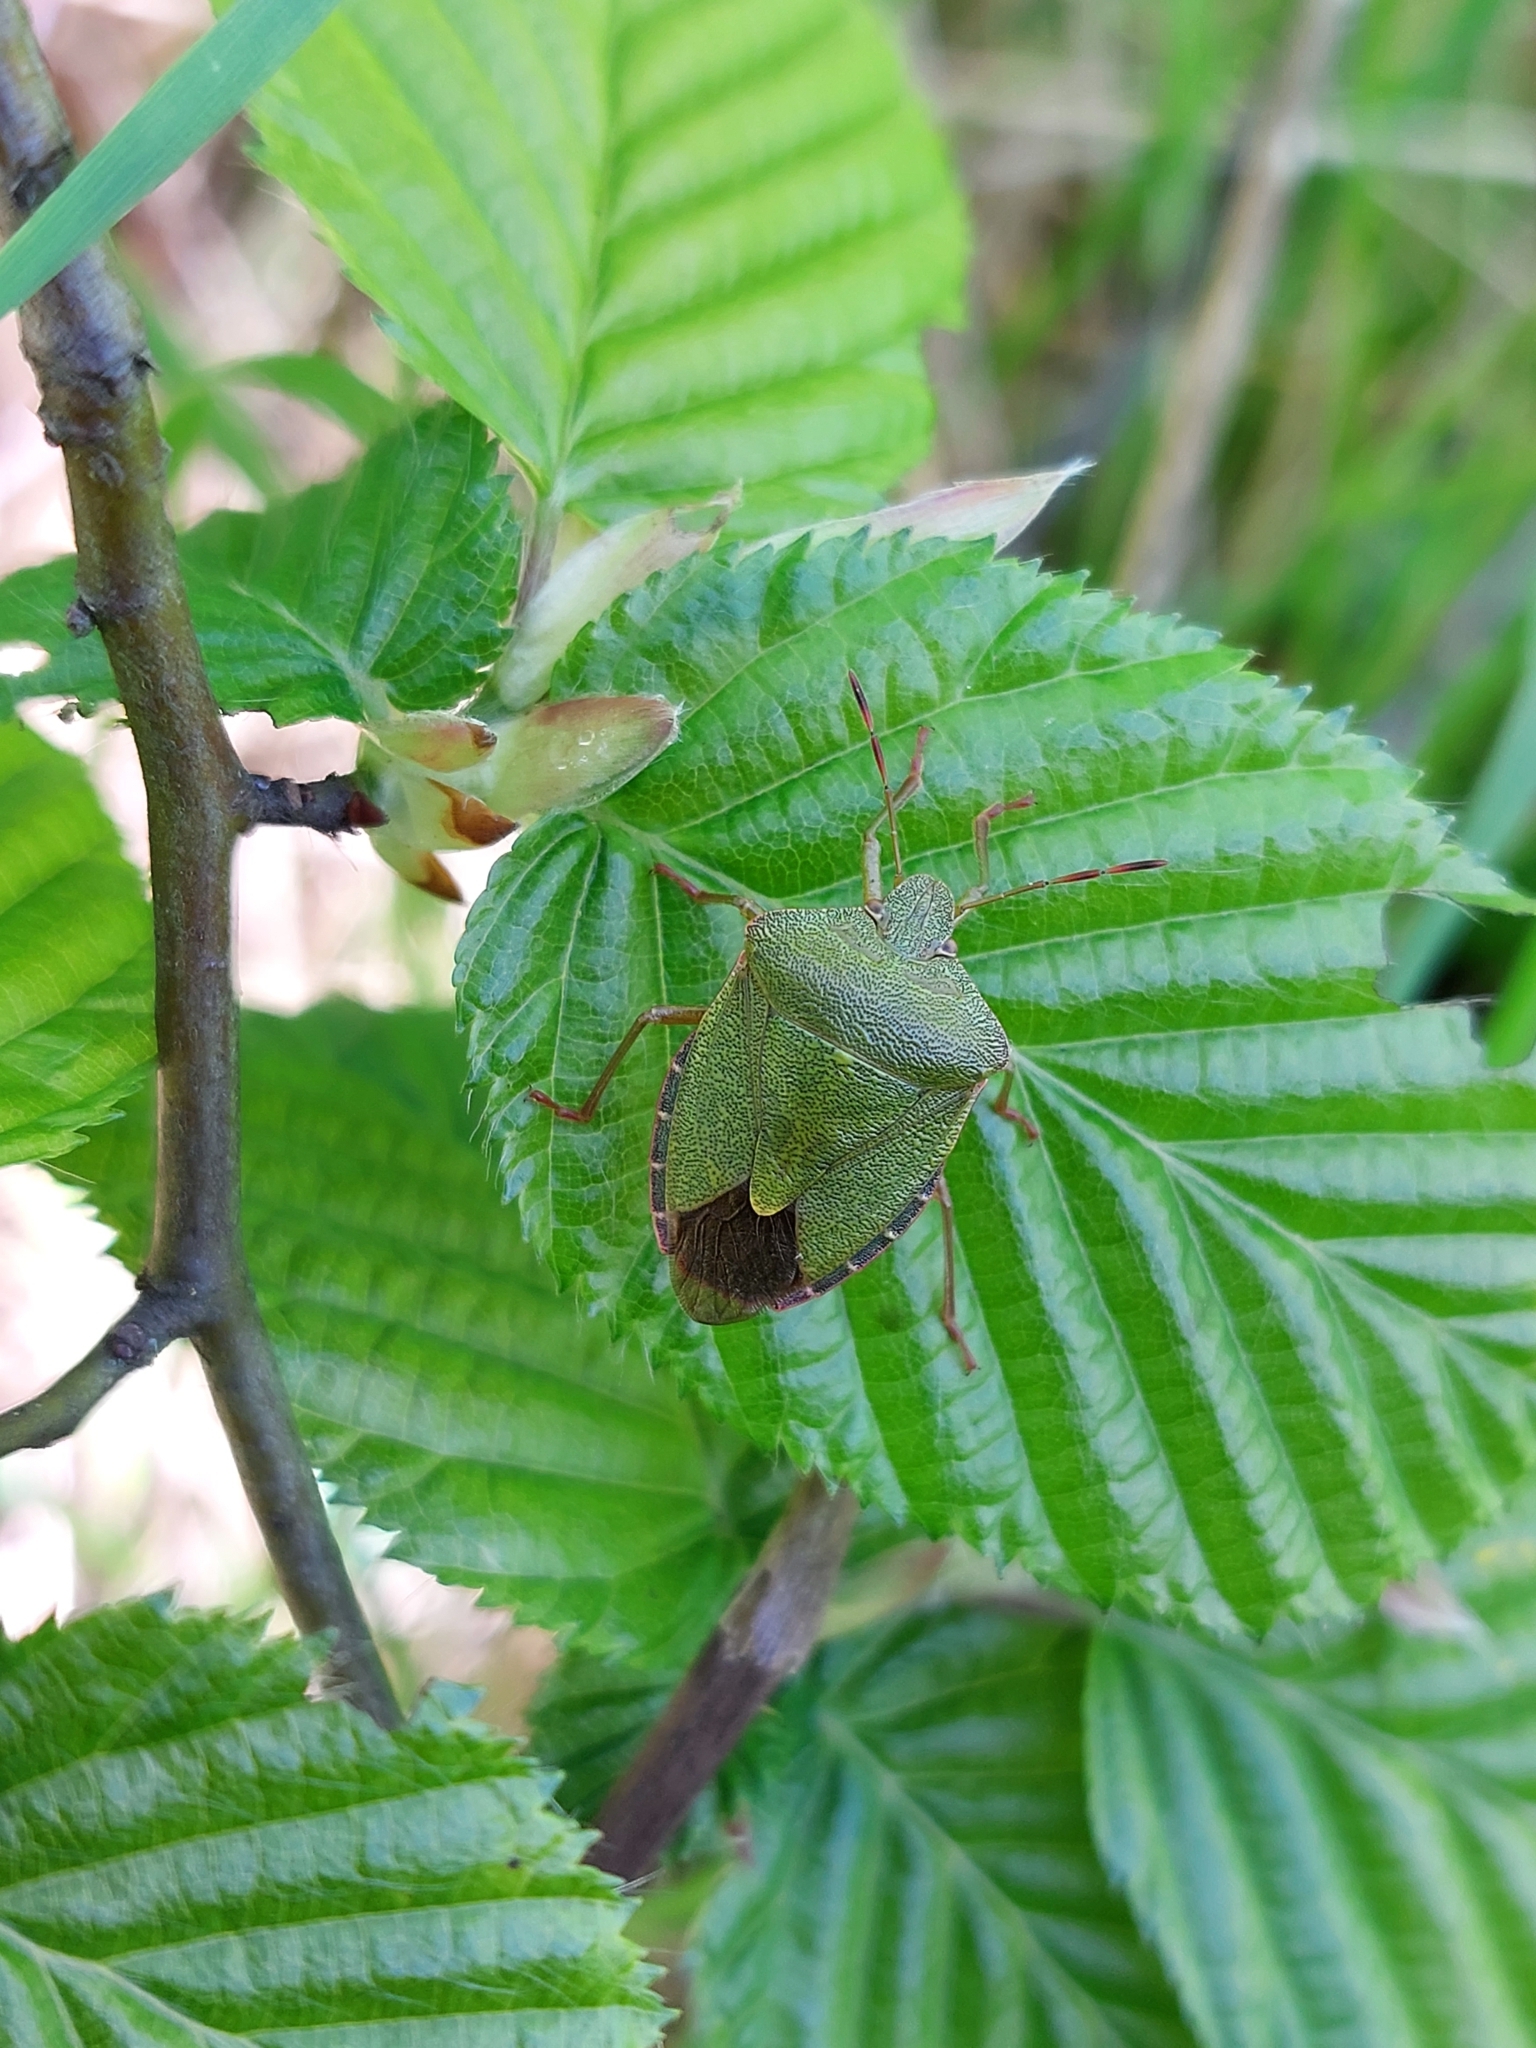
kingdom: Animalia
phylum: Arthropoda
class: Insecta
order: Hemiptera
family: Pentatomidae
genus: Palomena
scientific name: Palomena prasina
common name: Green shieldbug
